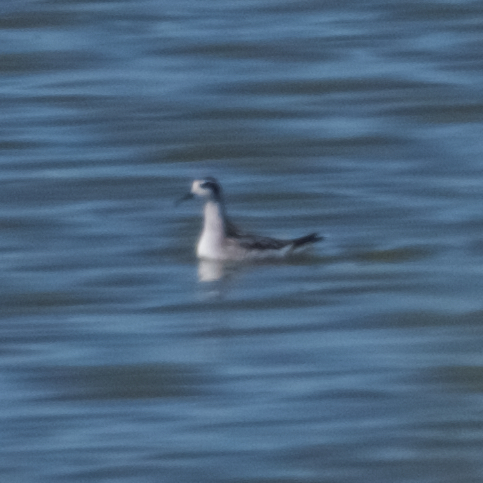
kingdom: Animalia
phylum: Chordata
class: Aves
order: Charadriiformes
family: Scolopacidae
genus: Phalaropus
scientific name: Phalaropus lobatus
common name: Red-necked phalarope
